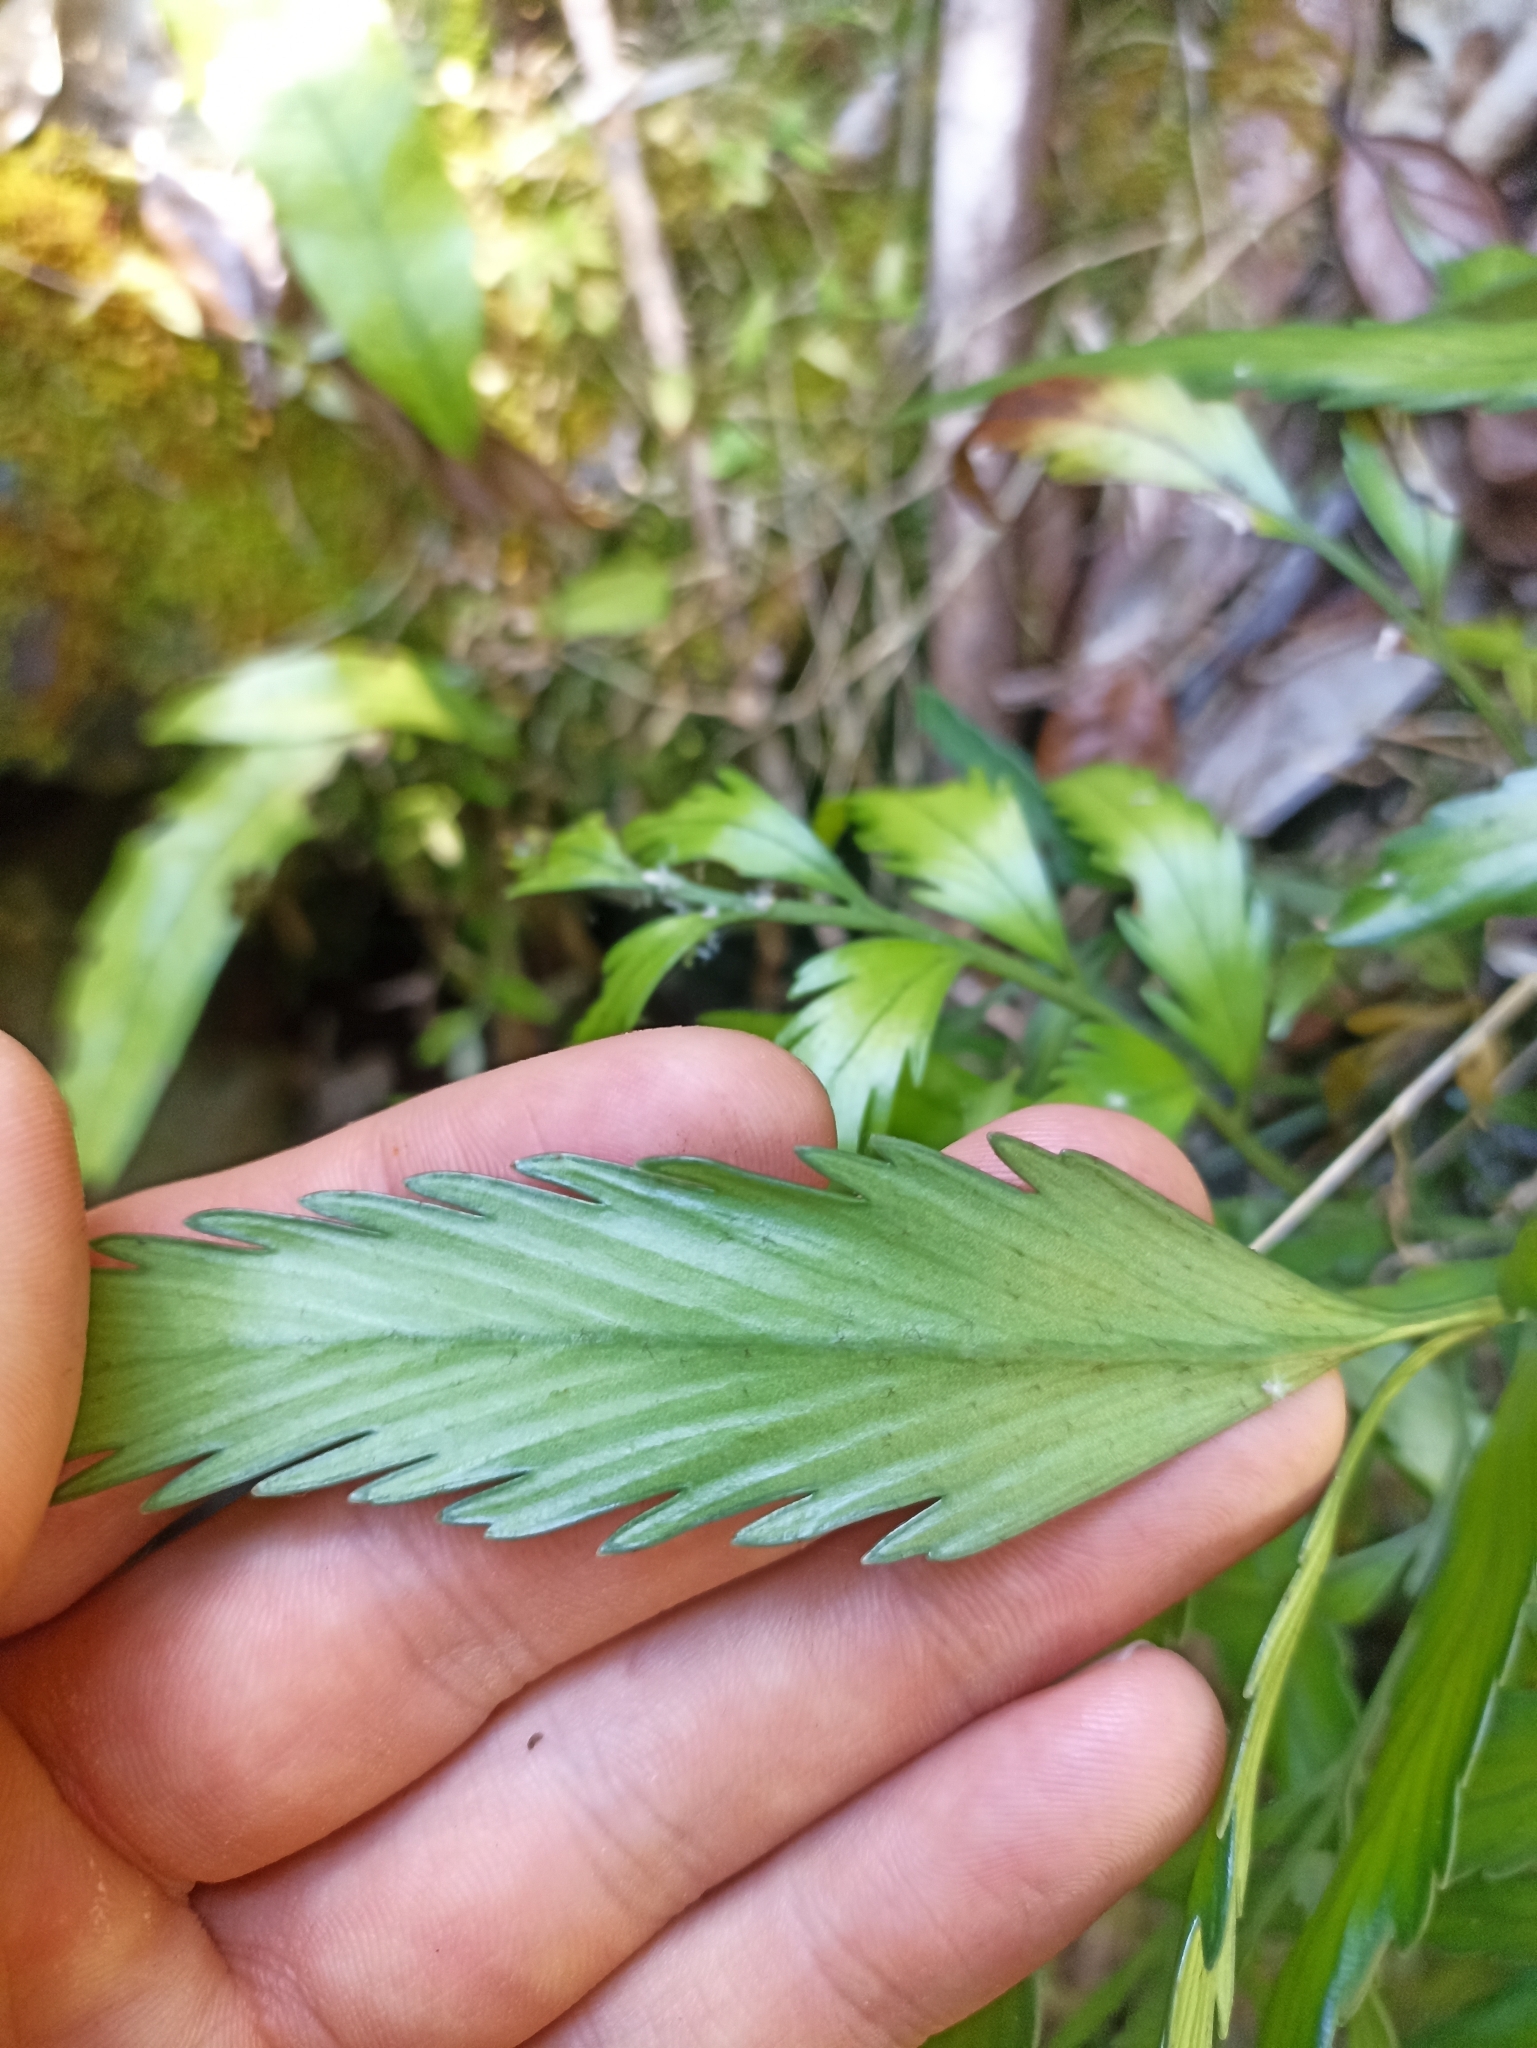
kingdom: Plantae
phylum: Tracheophyta
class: Polypodiopsida
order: Polypodiales
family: Aspleniaceae
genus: Asplenium
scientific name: Asplenium
